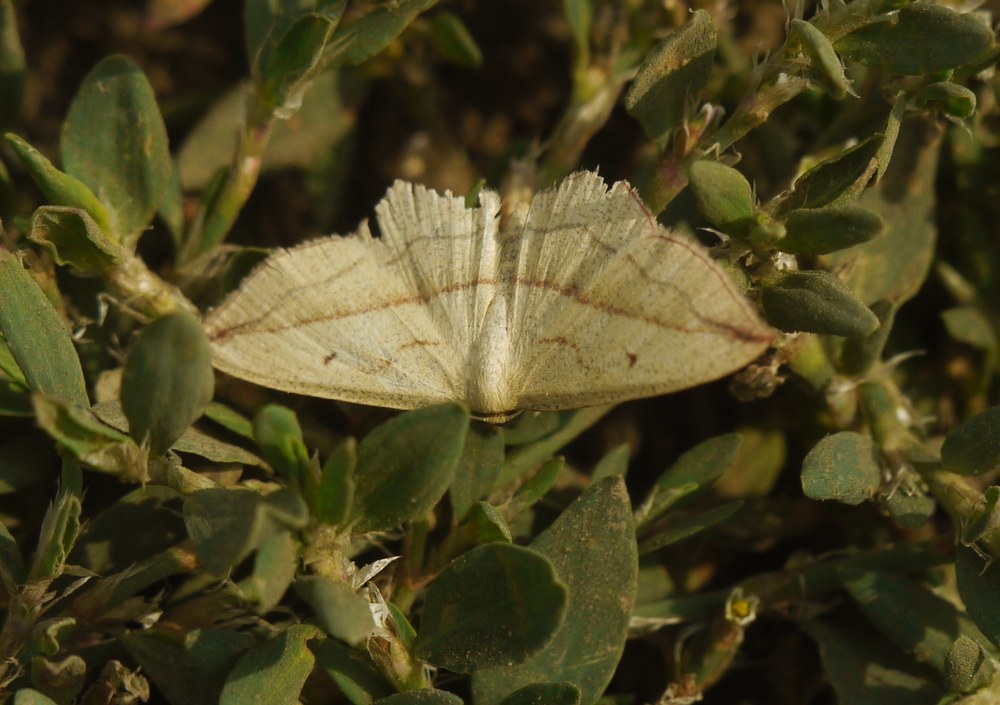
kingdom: Animalia
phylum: Arthropoda
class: Insecta
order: Lepidoptera
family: Geometridae
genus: Timandra
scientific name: Timandra comae
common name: Blood-vein
